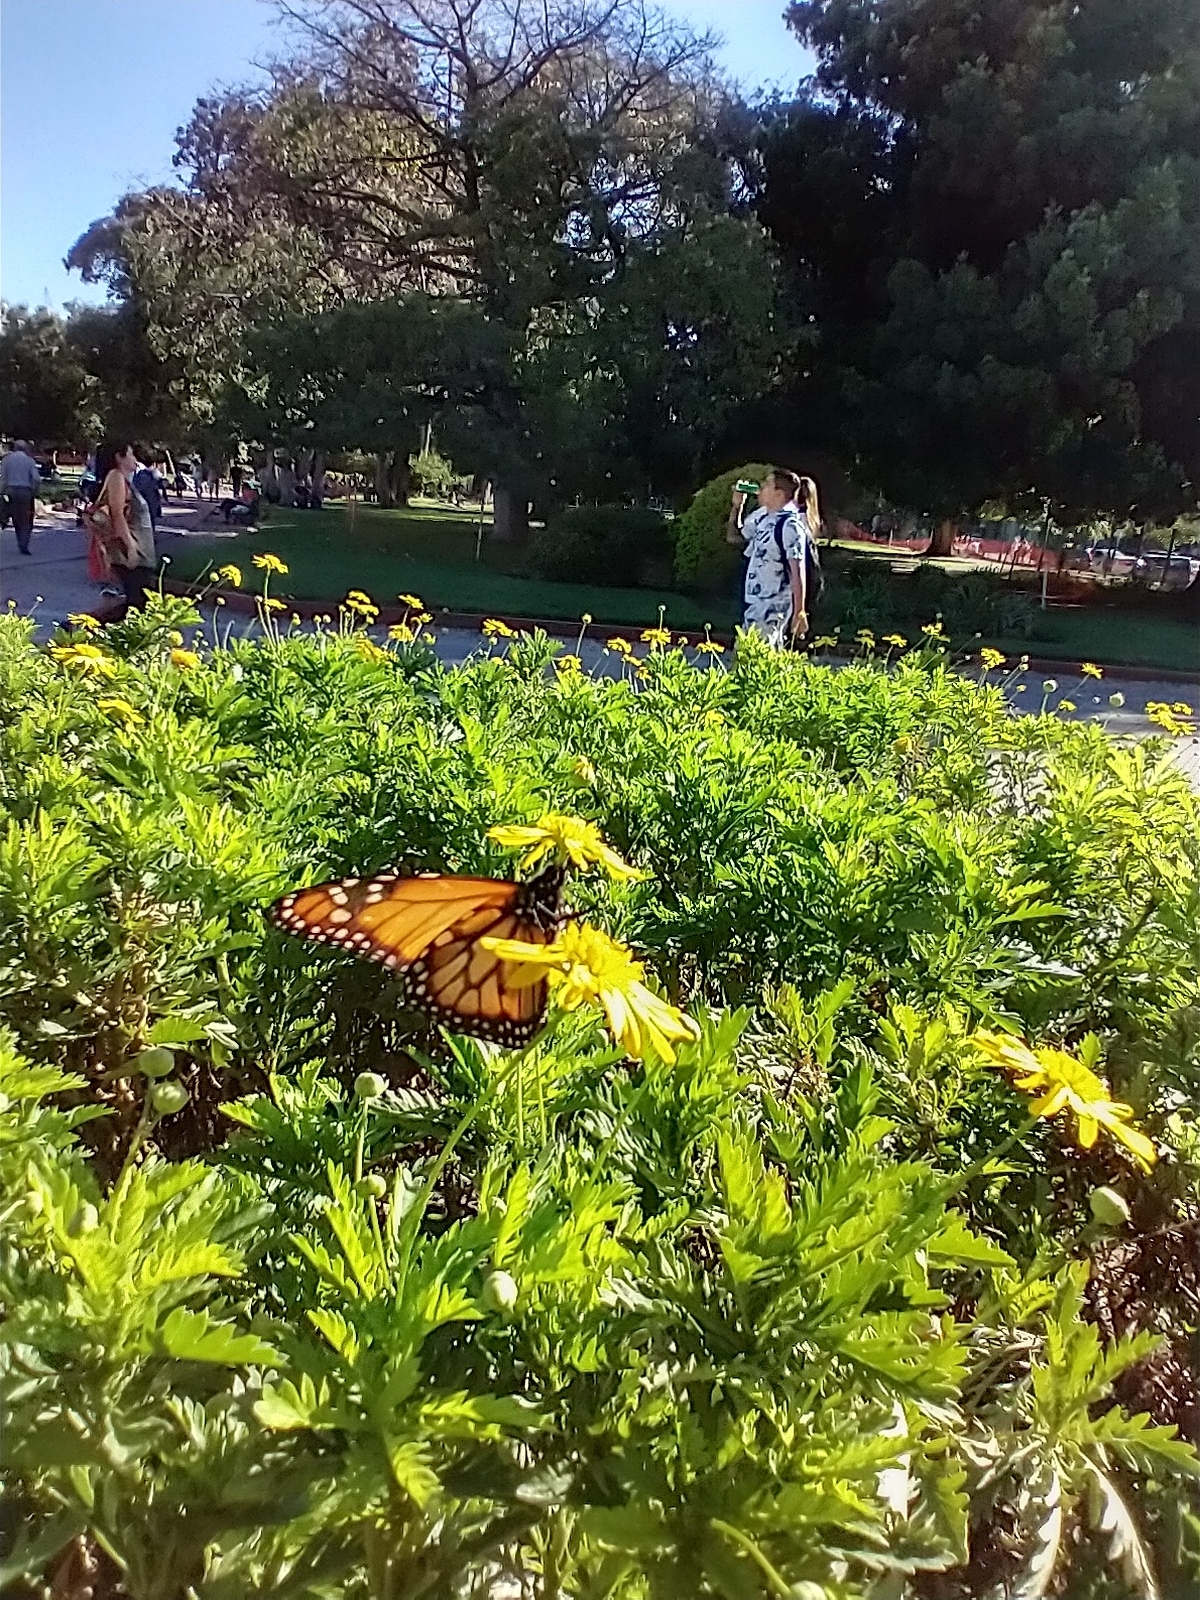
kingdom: Animalia
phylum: Arthropoda
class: Insecta
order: Lepidoptera
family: Nymphalidae
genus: Danaus
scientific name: Danaus erippus
